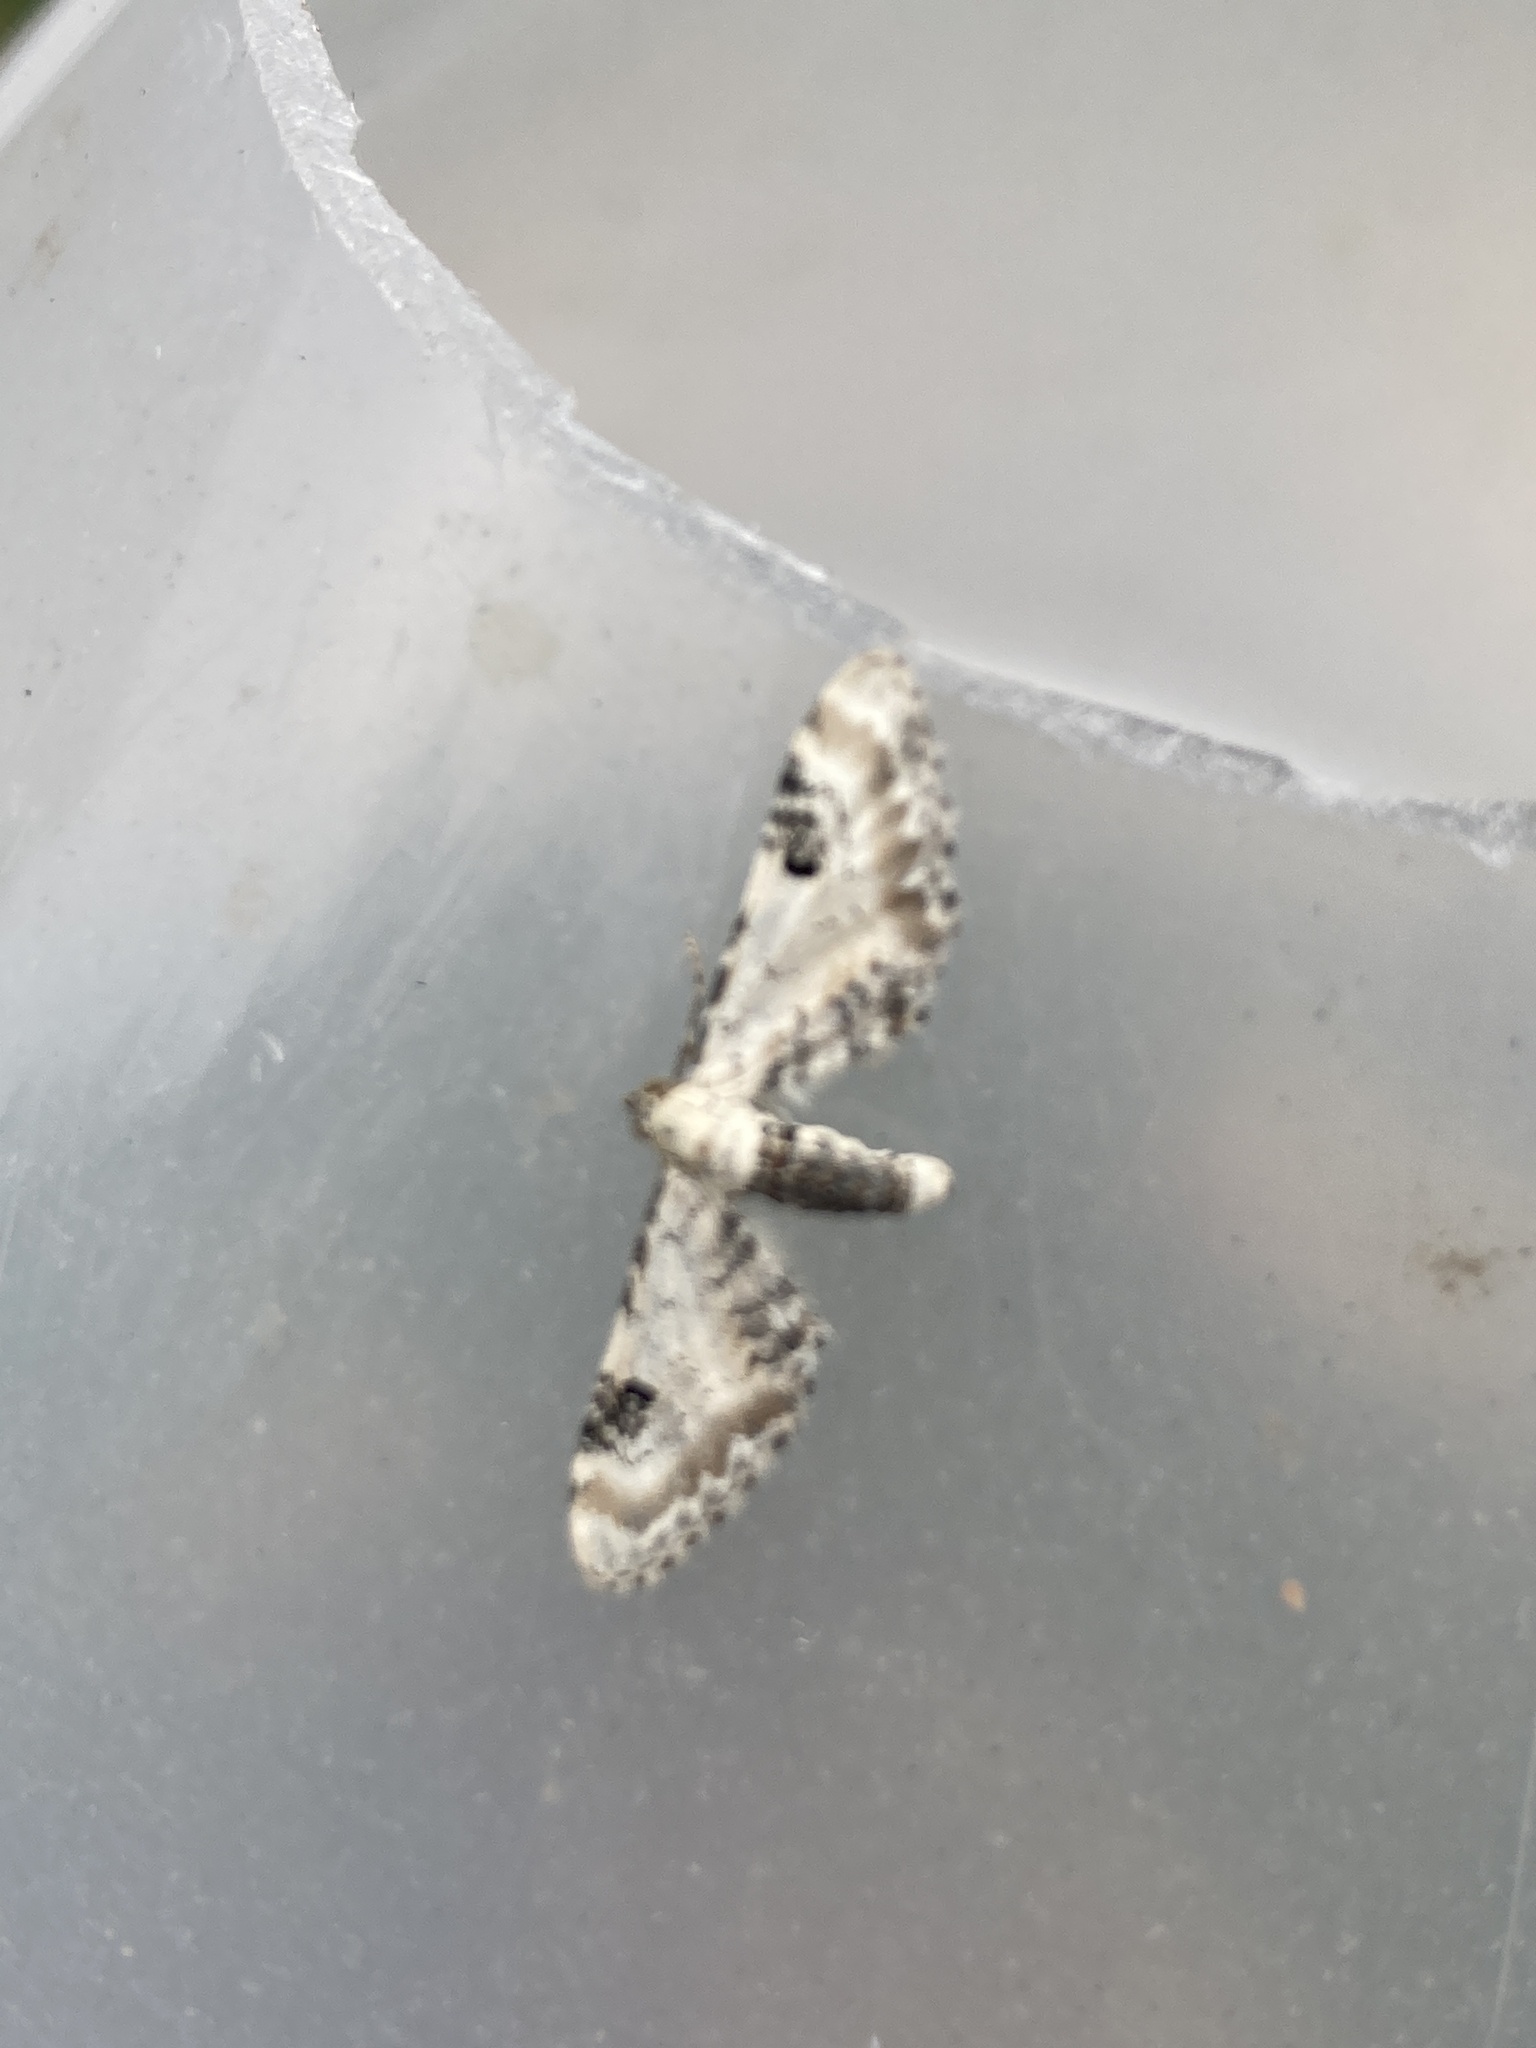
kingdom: Animalia
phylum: Arthropoda
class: Insecta
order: Lepidoptera
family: Geometridae
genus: Eupithecia
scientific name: Eupithecia centaureata
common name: Lime-speck pug
